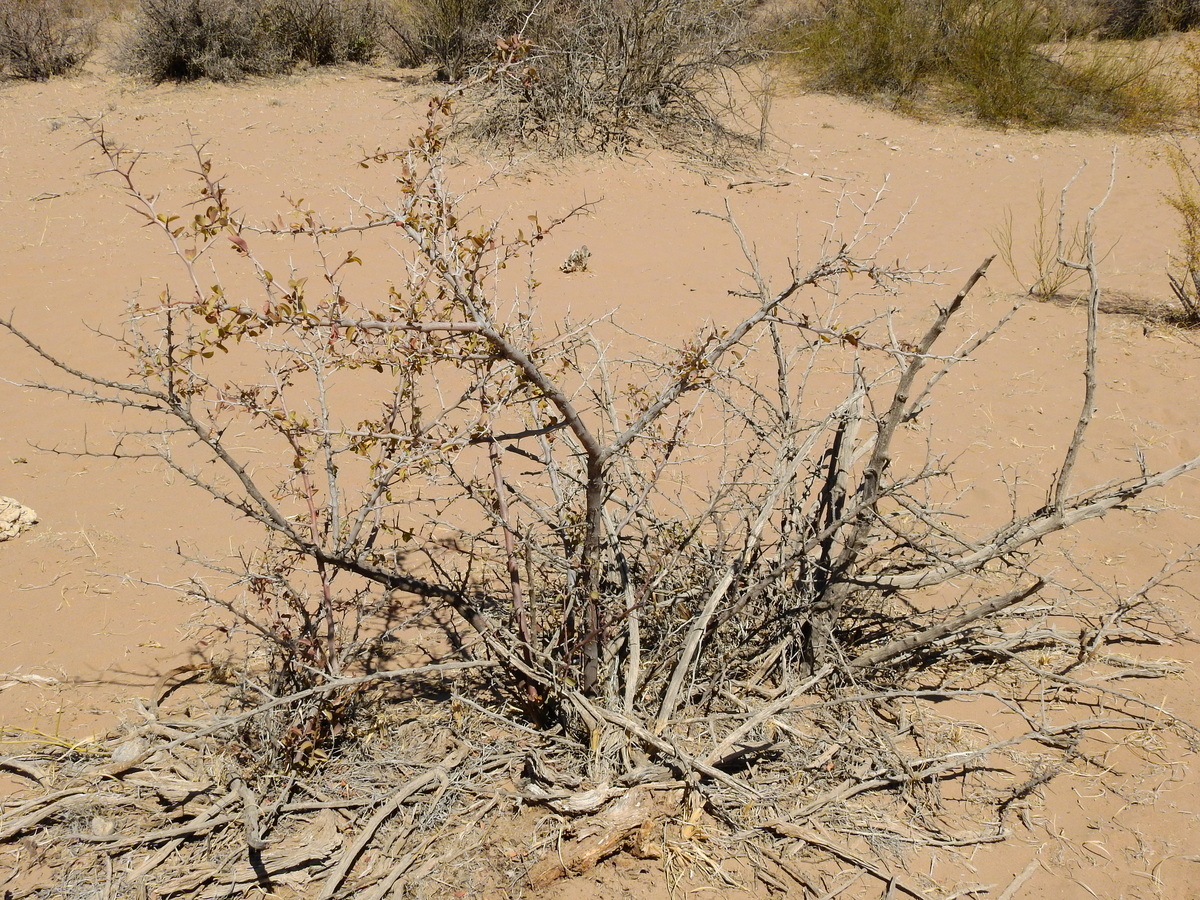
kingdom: Plantae
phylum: Tracheophyta
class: Magnoliopsida
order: Santalales
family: Ximeniaceae
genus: Ximenia
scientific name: Ximenia americana
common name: Tallowwood
